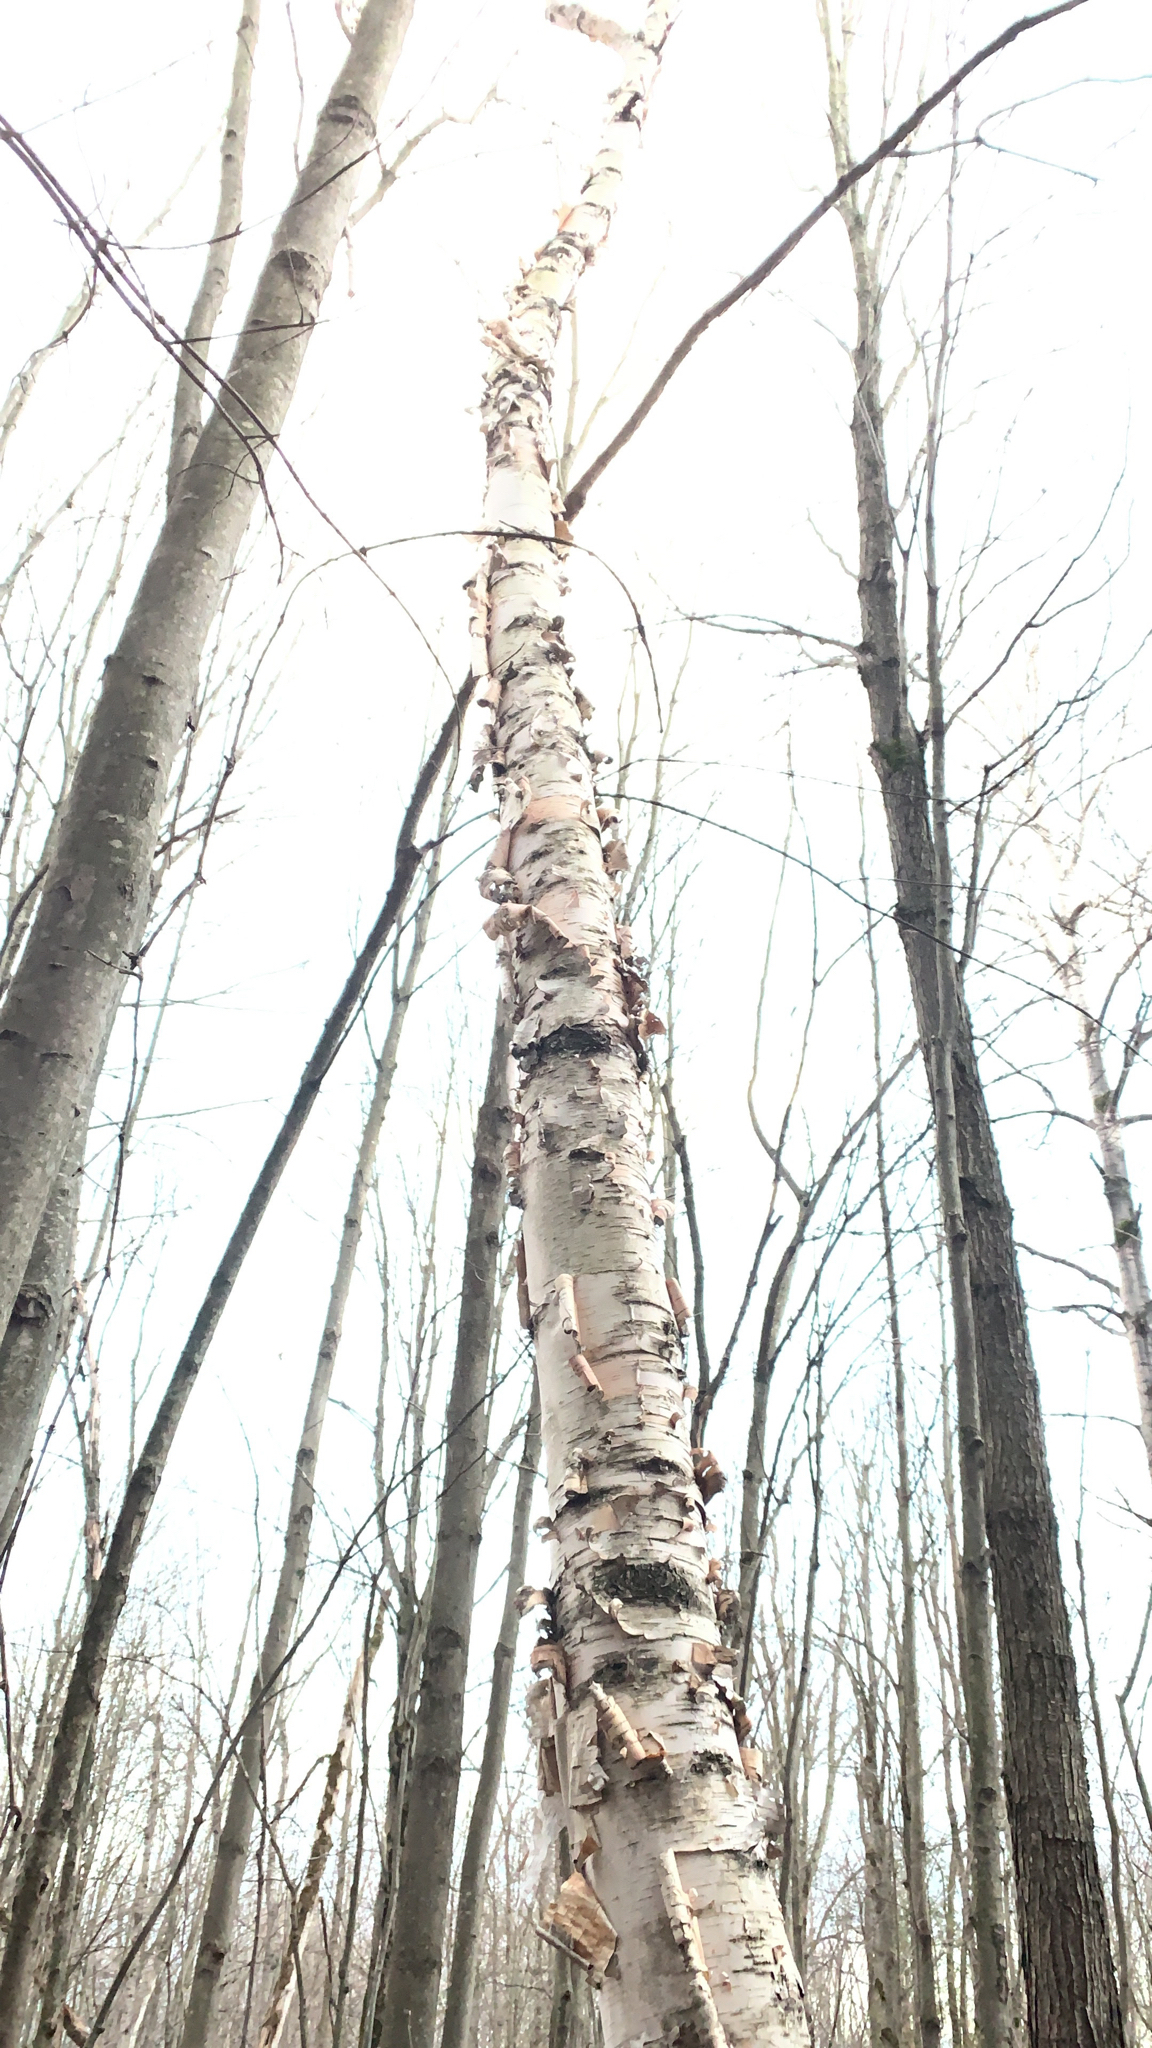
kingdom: Plantae
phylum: Tracheophyta
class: Magnoliopsida
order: Fagales
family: Betulaceae
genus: Betula
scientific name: Betula papyrifera
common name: Paper birch
